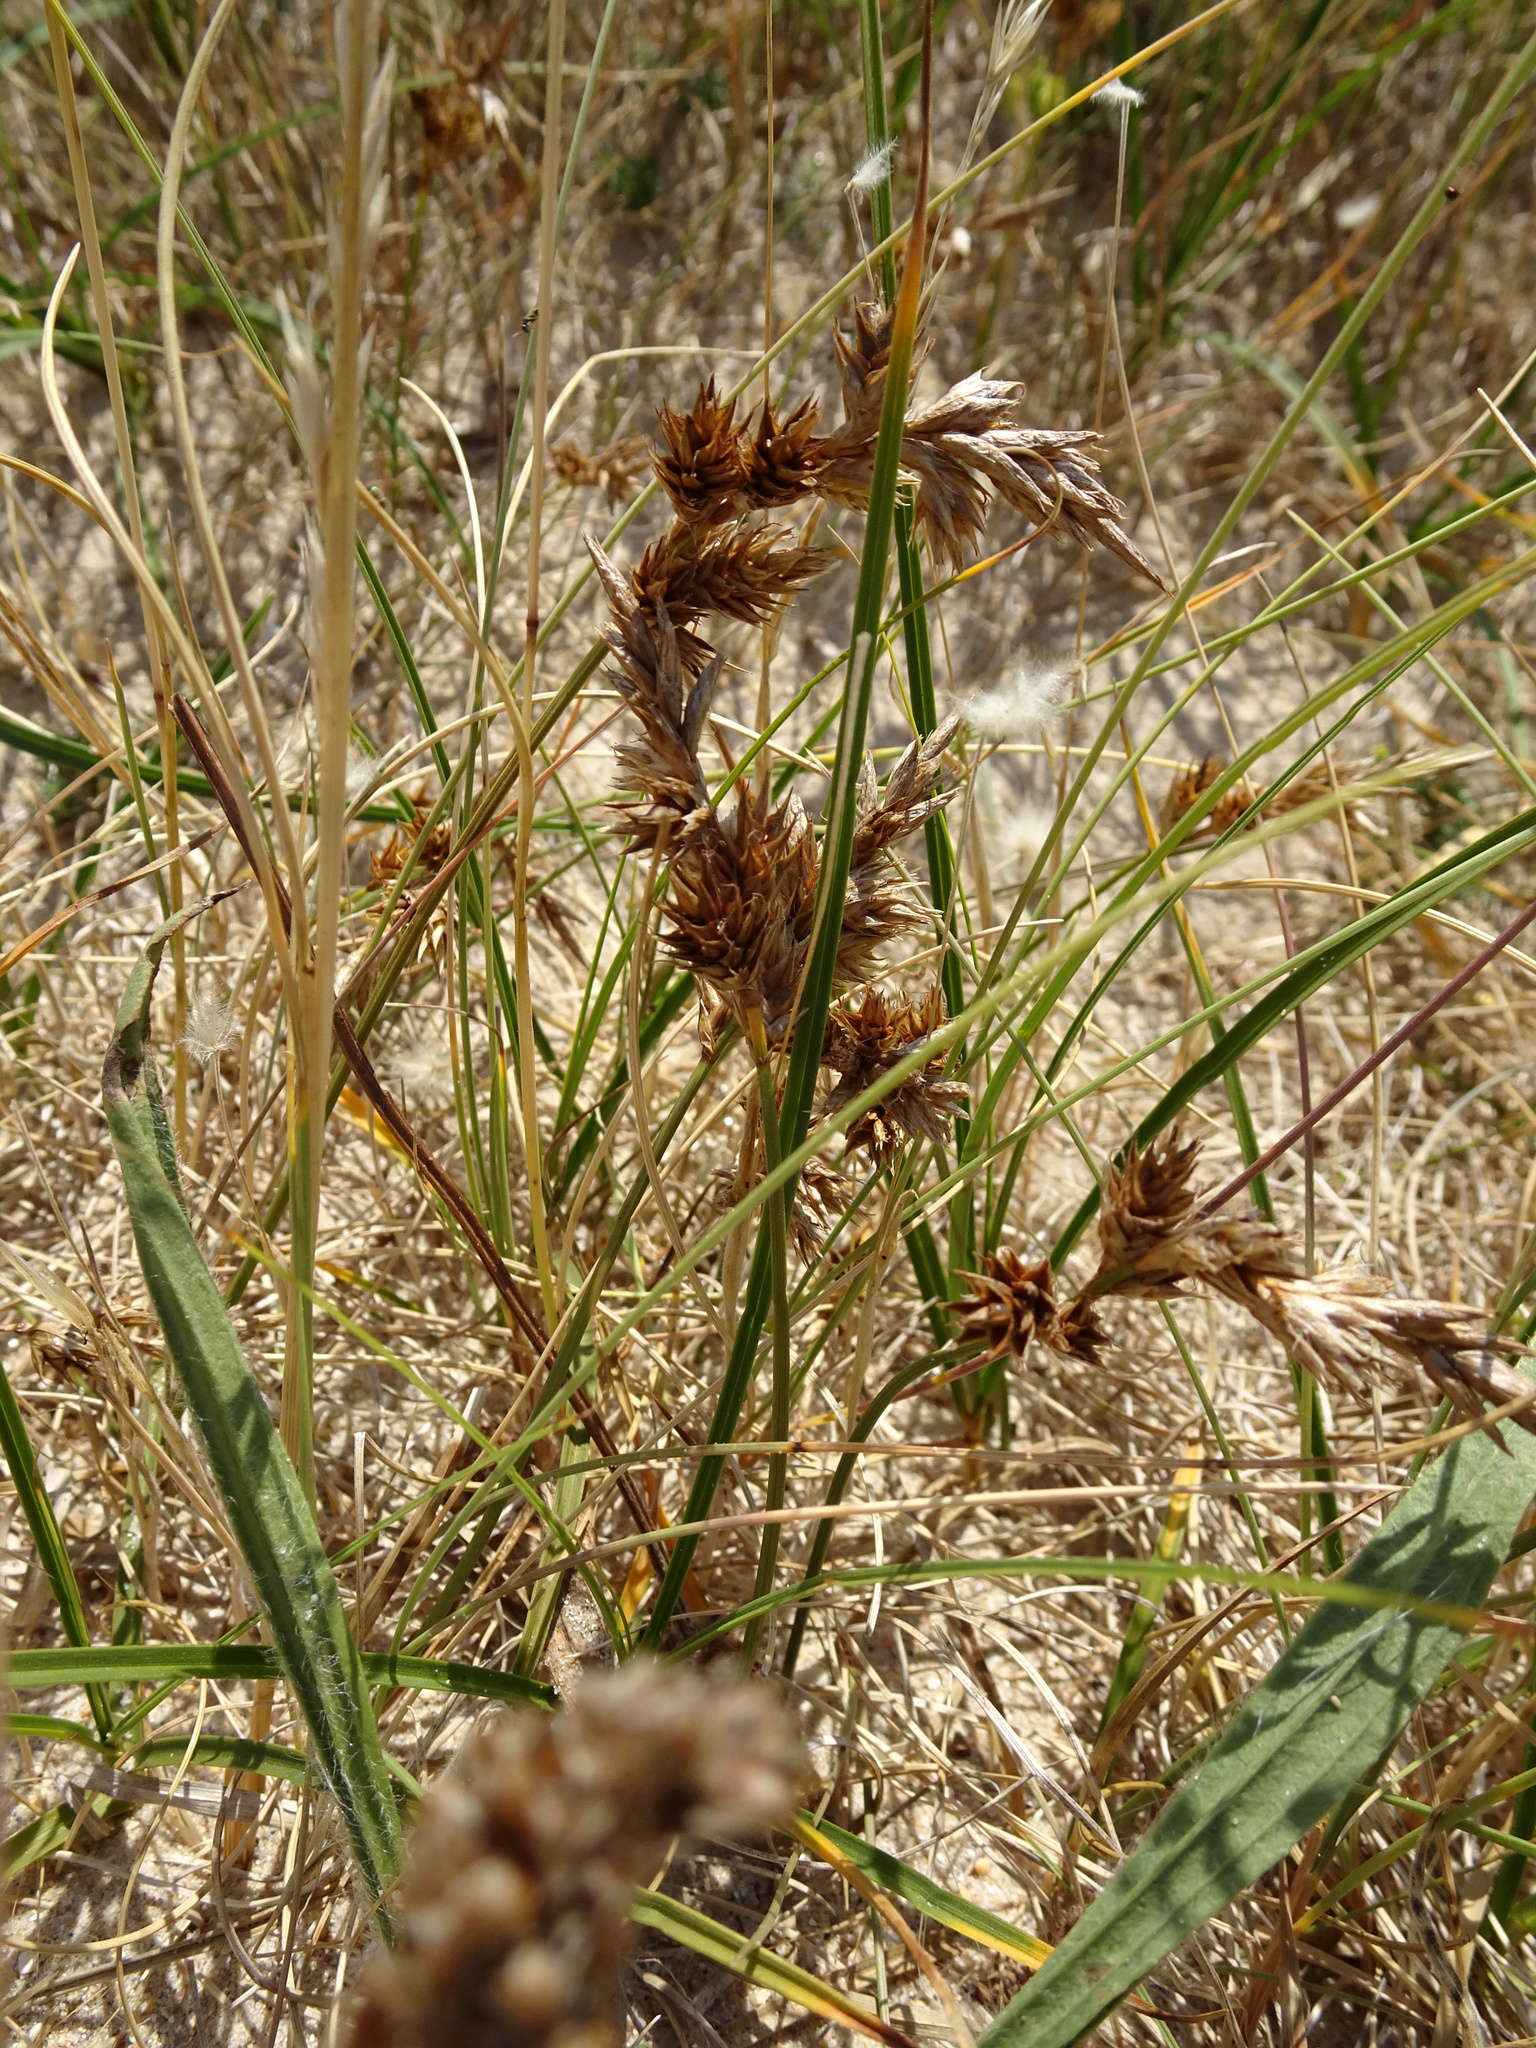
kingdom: Plantae
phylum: Tracheophyta
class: Liliopsida
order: Poales
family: Cyperaceae
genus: Carex
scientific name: Carex arenaria
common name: Sand sedge
